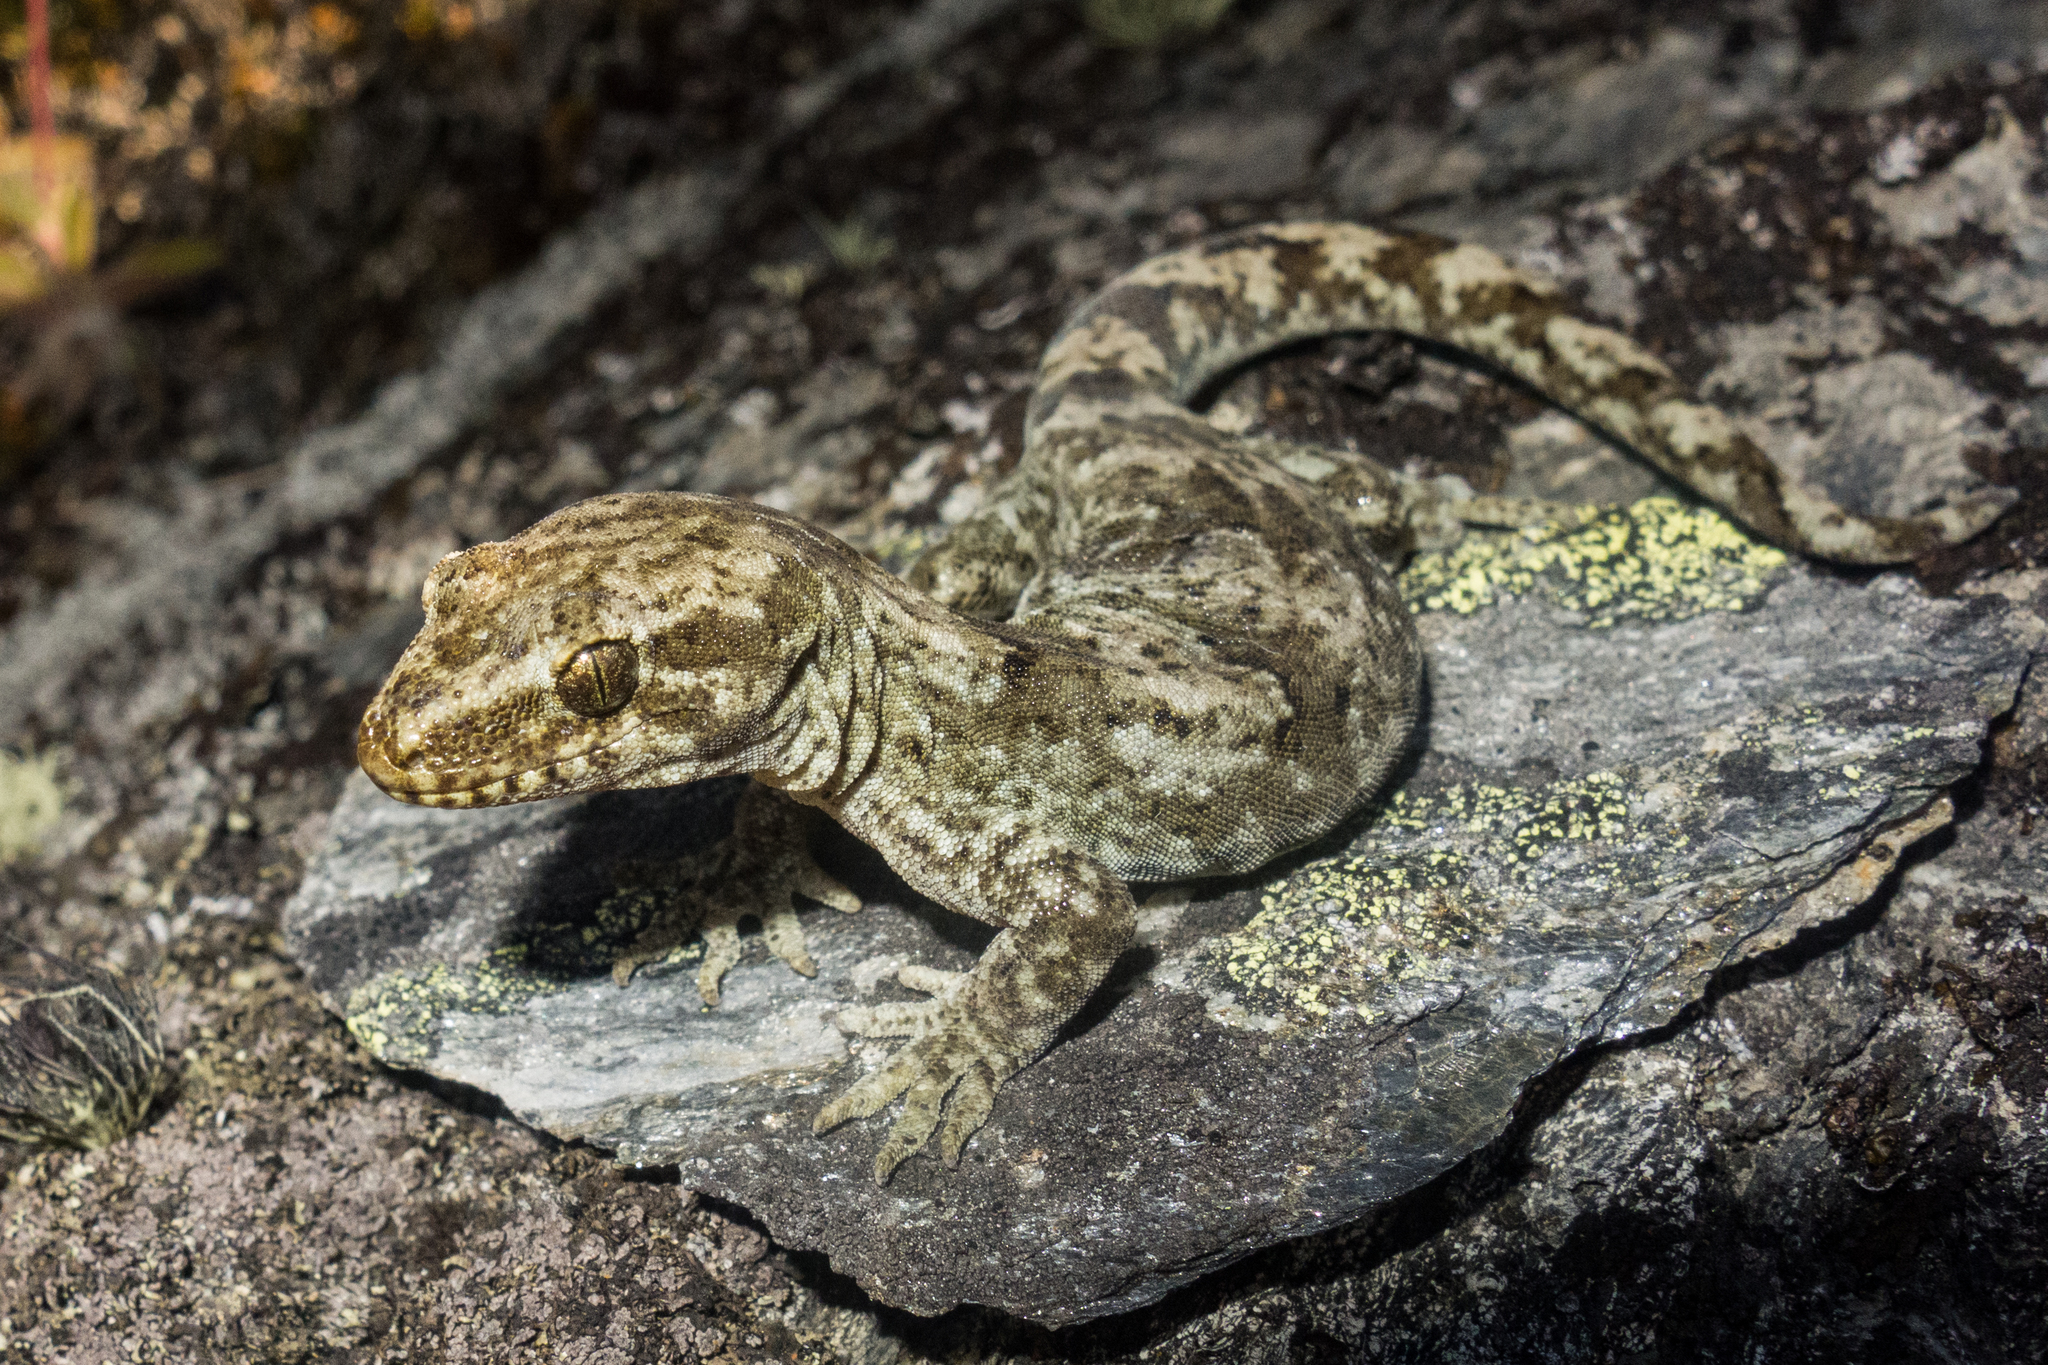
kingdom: Animalia
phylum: Chordata
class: Squamata
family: Diplodactylidae
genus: Woodworthia
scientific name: Woodworthia
